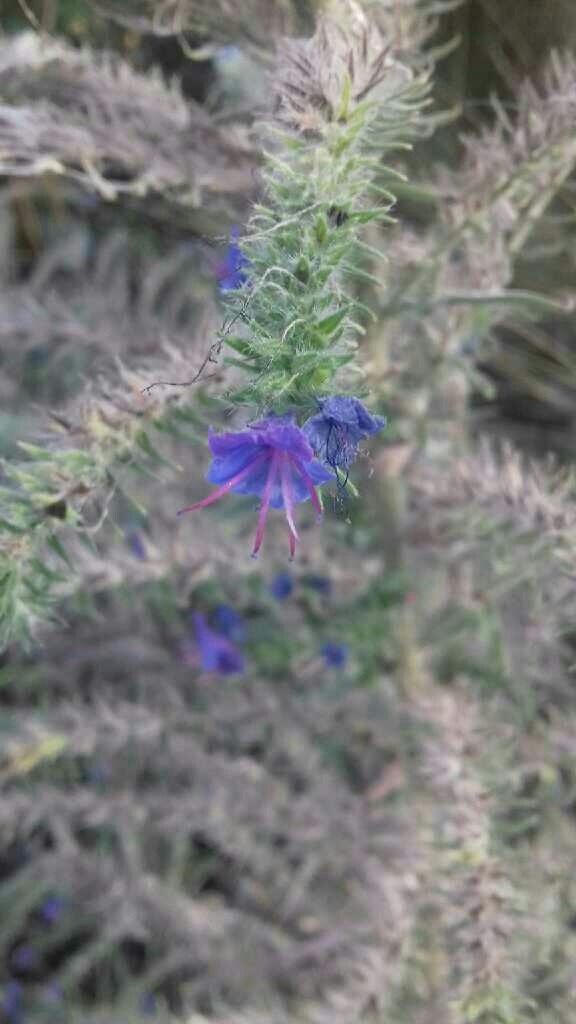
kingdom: Plantae
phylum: Tracheophyta
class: Magnoliopsida
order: Boraginales
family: Boraginaceae
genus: Echium
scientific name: Echium vulgare
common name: Common viper's bugloss
